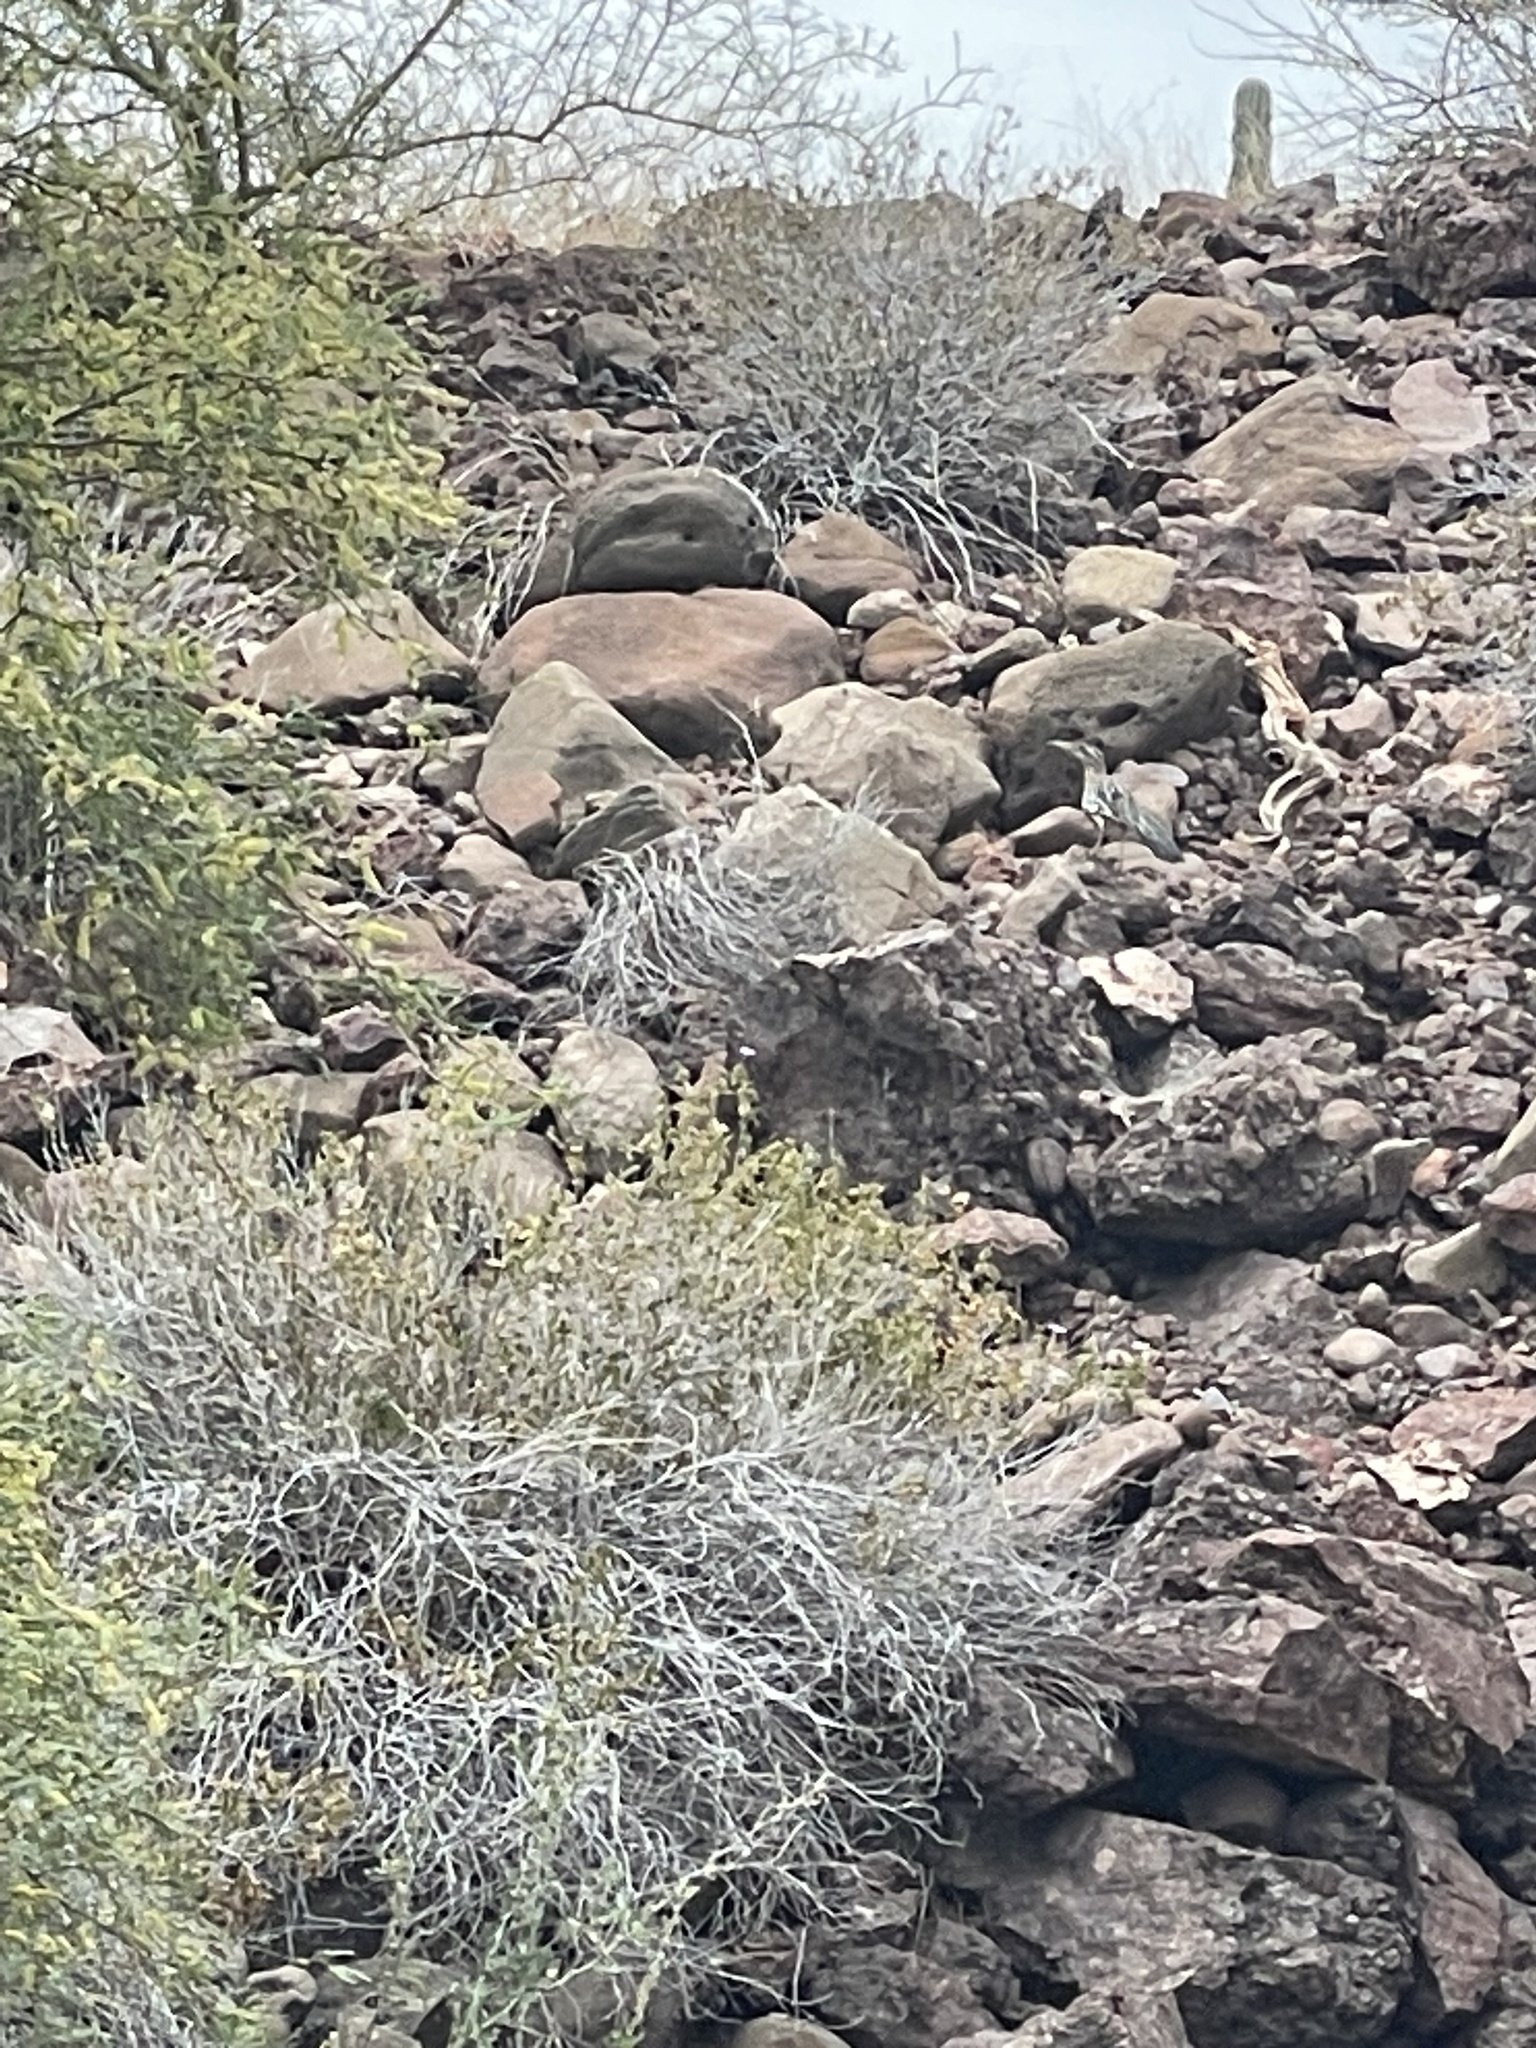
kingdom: Animalia
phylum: Chordata
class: Aves
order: Cuculiformes
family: Cuculidae
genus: Geococcyx
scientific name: Geococcyx californianus
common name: Greater roadrunner
